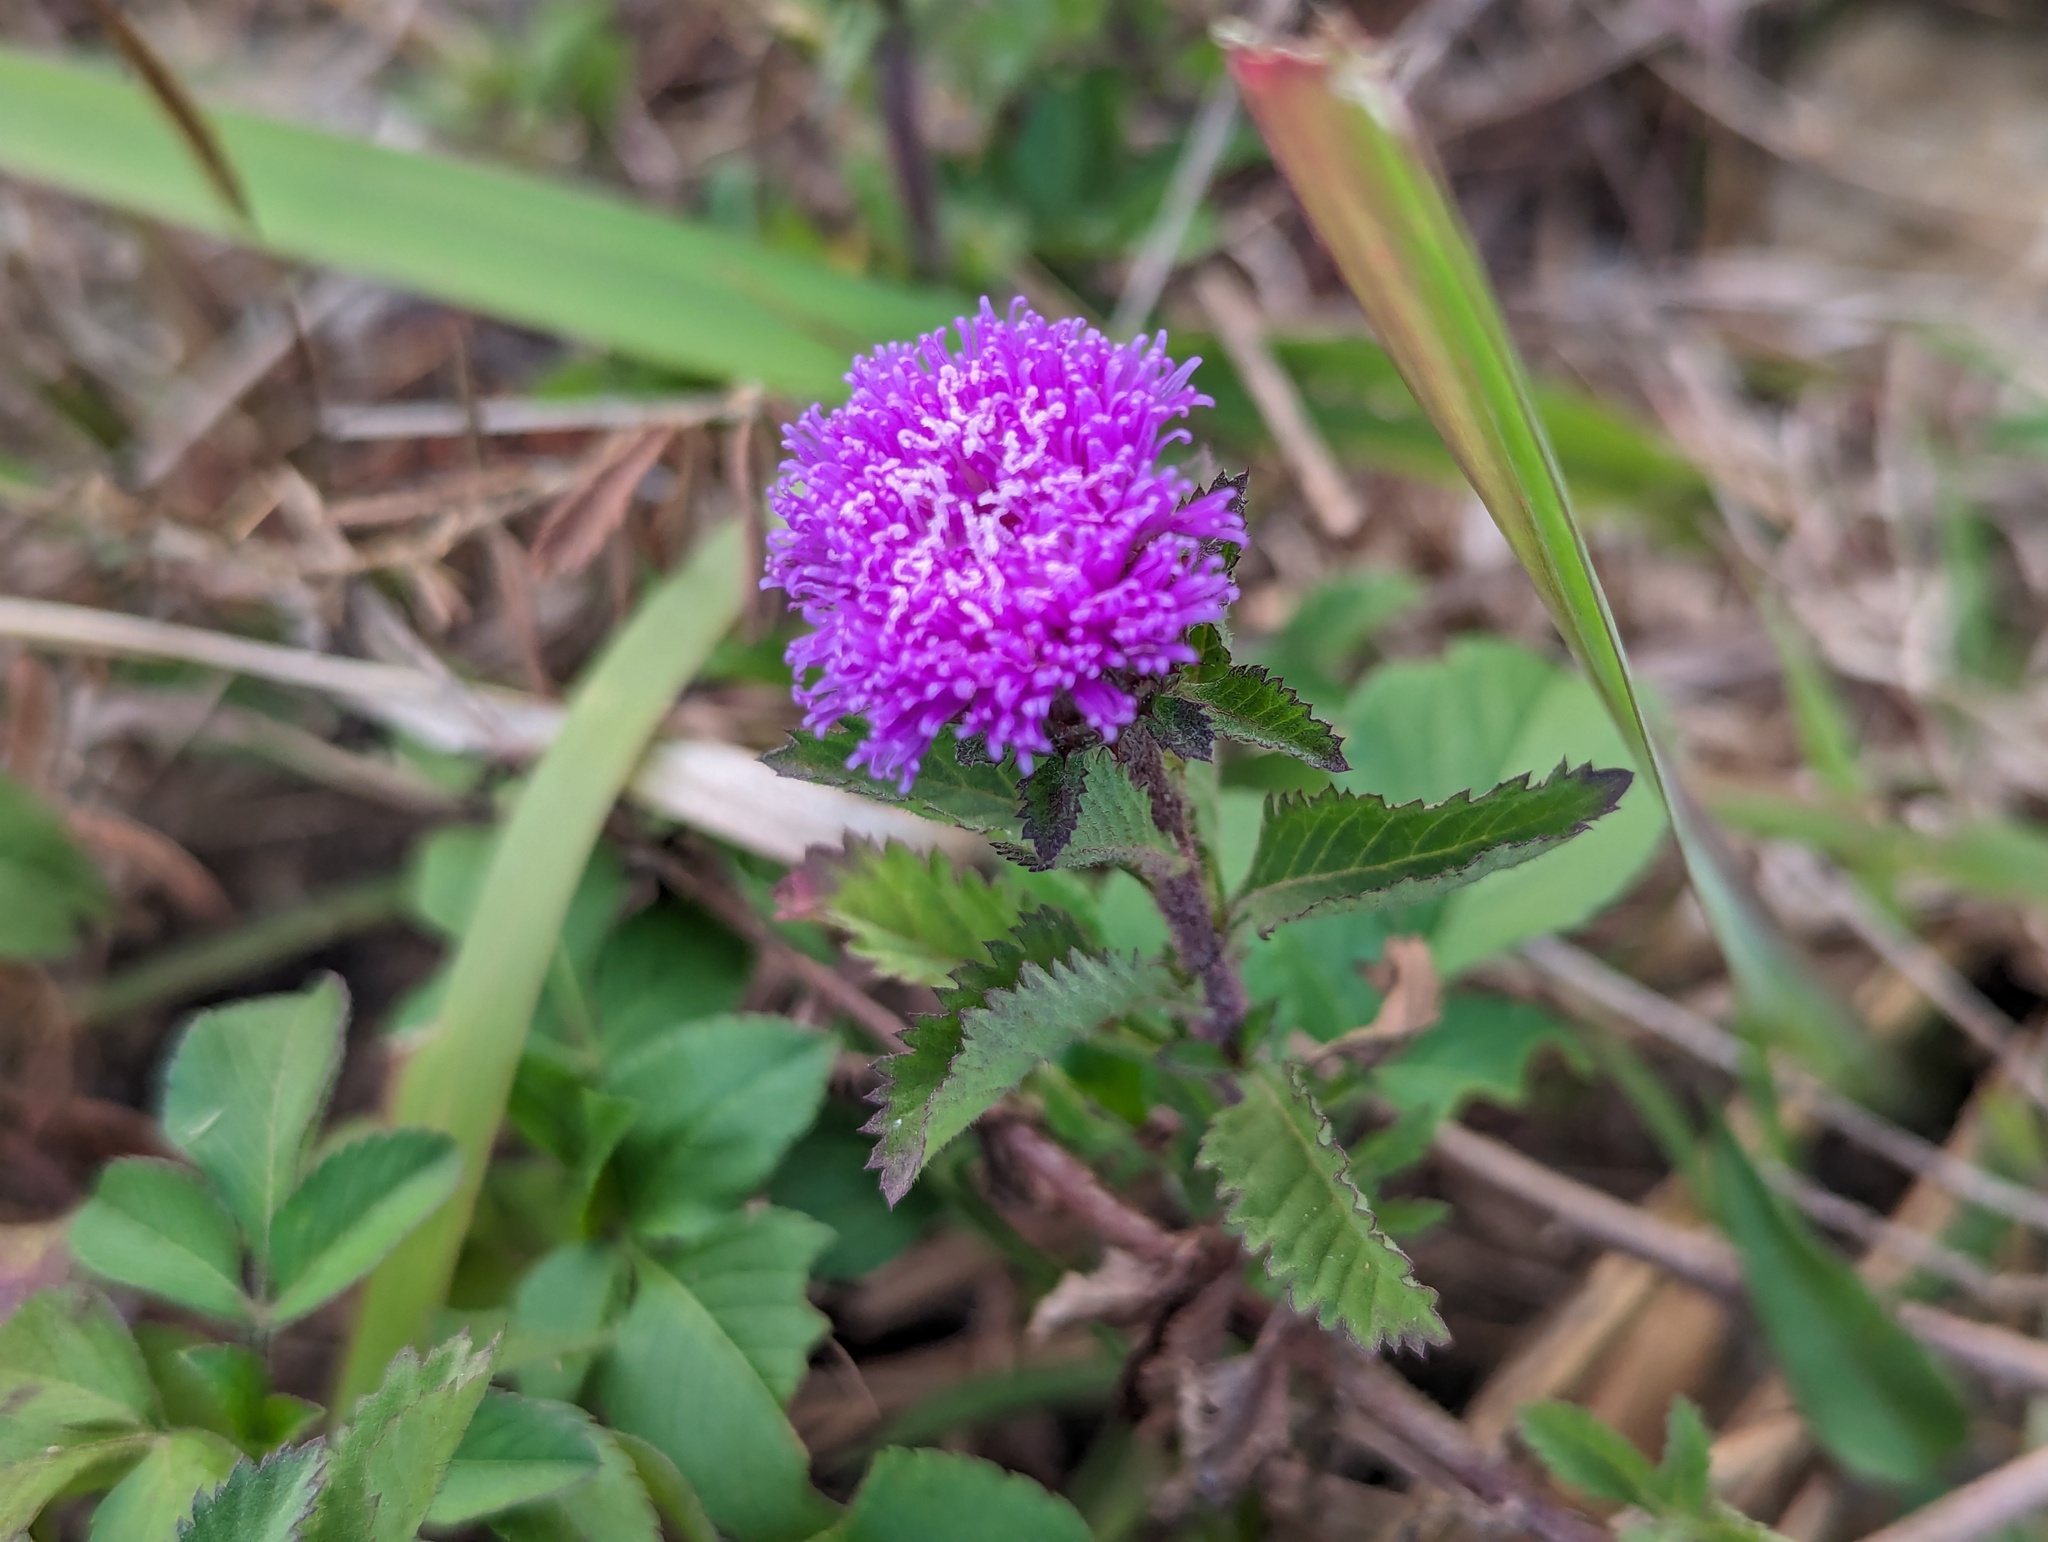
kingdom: Plantae
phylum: Tracheophyta
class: Magnoliopsida
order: Asterales
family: Asteraceae
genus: Centratherum
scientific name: Centratherum punctatum
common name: Larkdaisy
